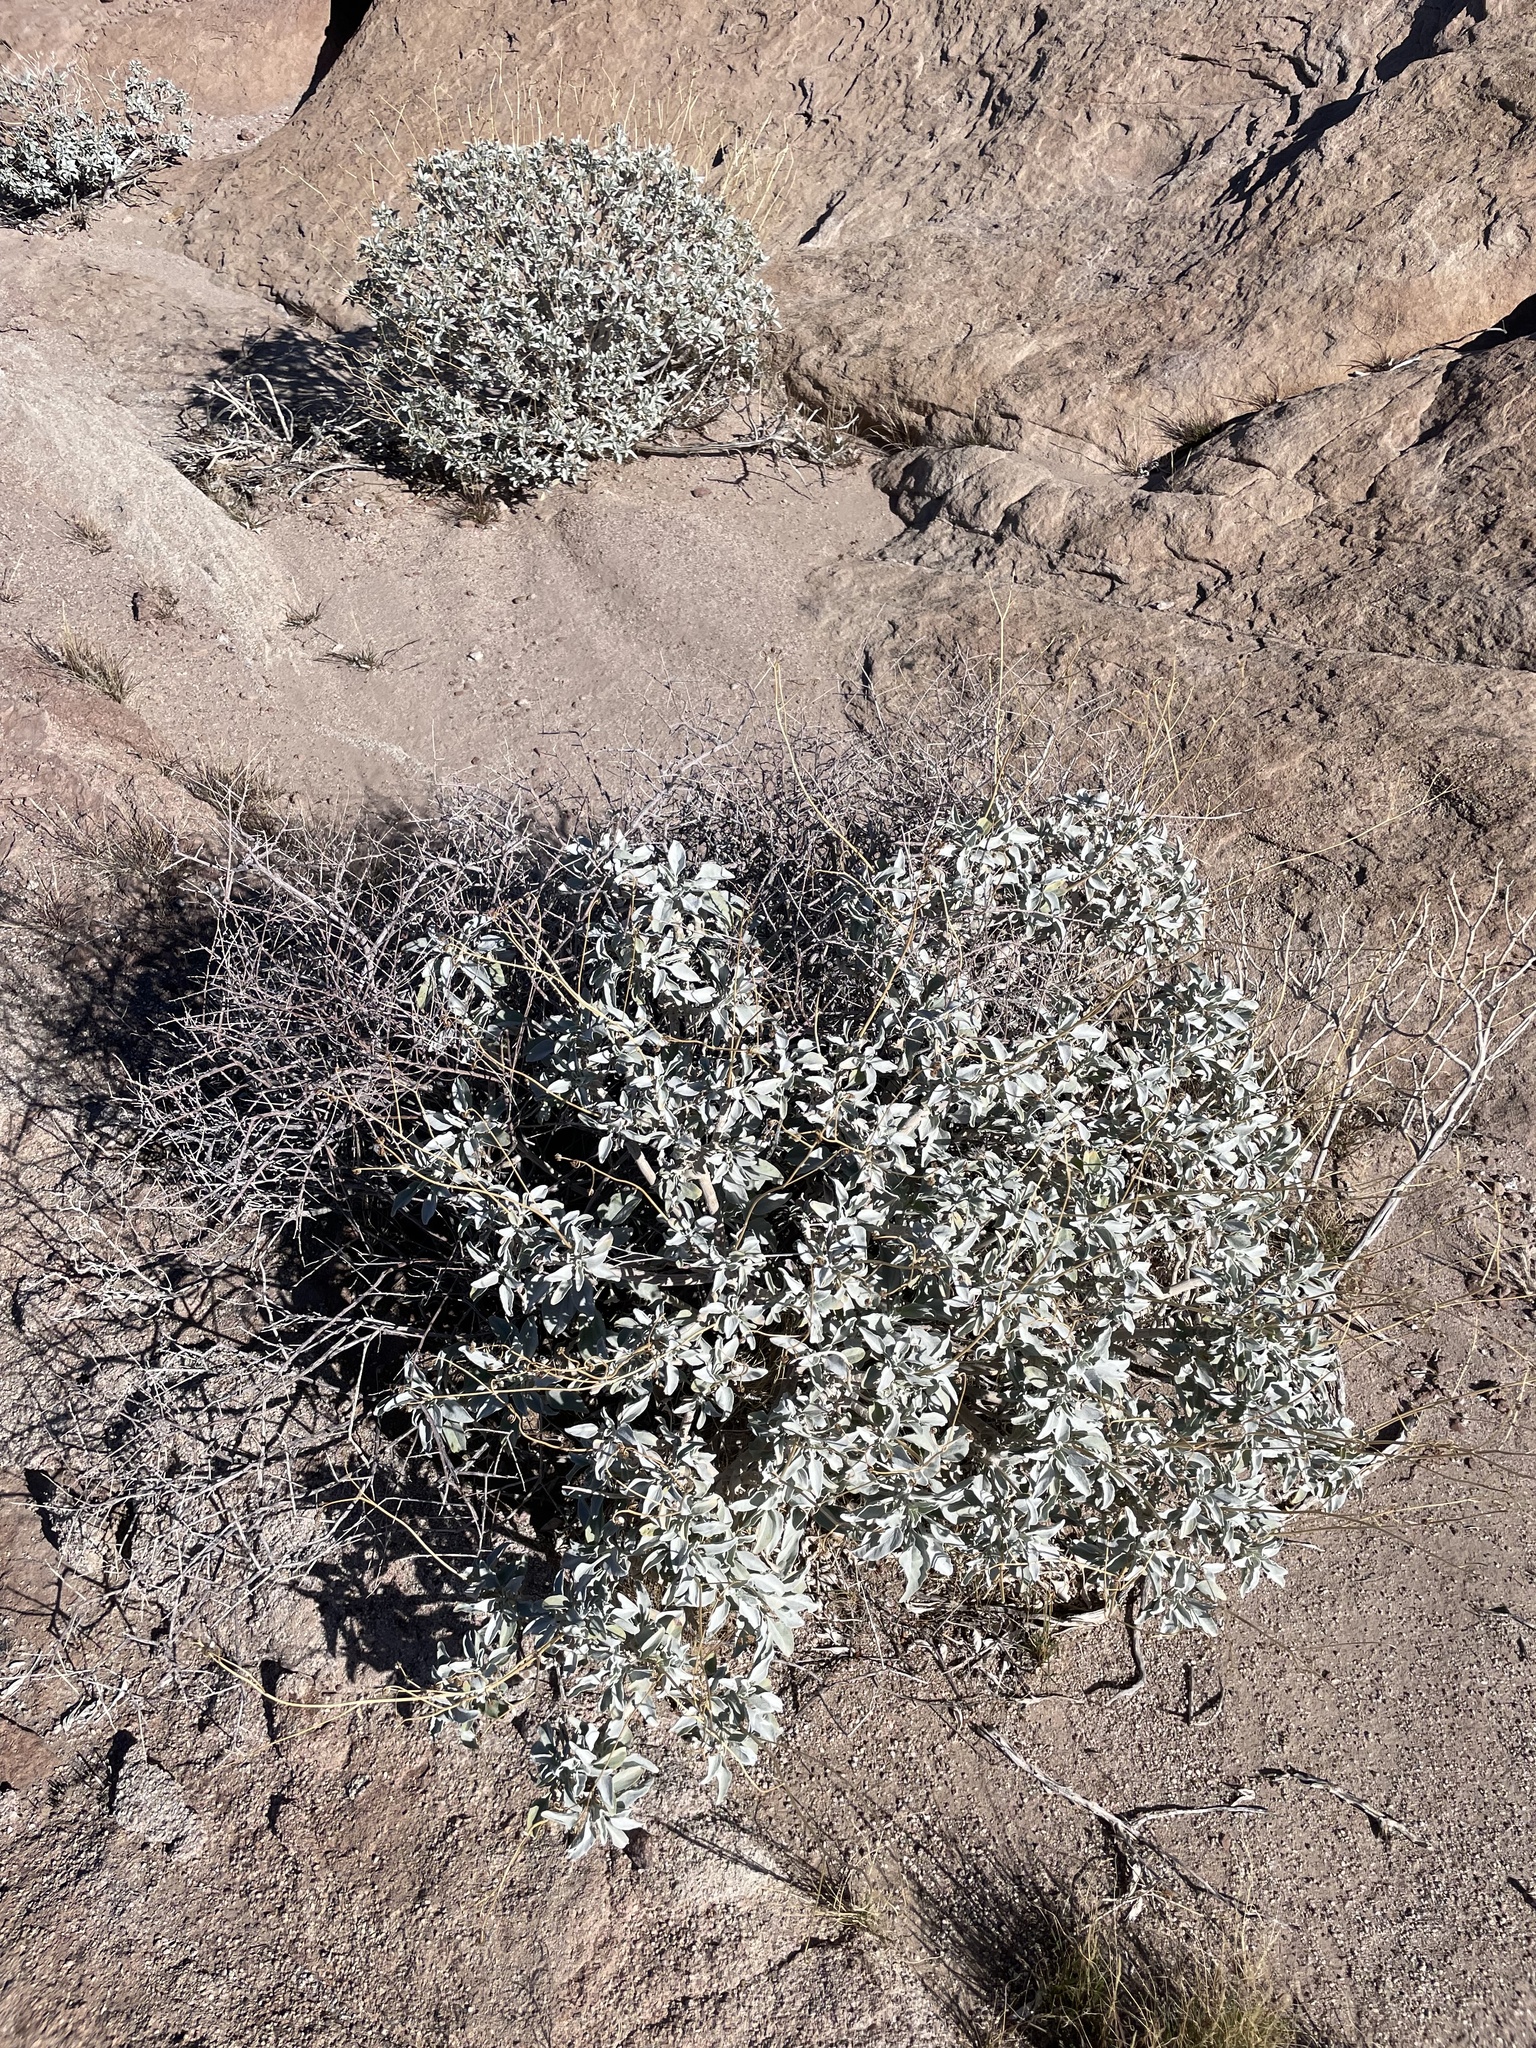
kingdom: Plantae
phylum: Tracheophyta
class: Magnoliopsida
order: Asterales
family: Asteraceae
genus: Encelia
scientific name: Encelia farinosa
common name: Brittlebush
